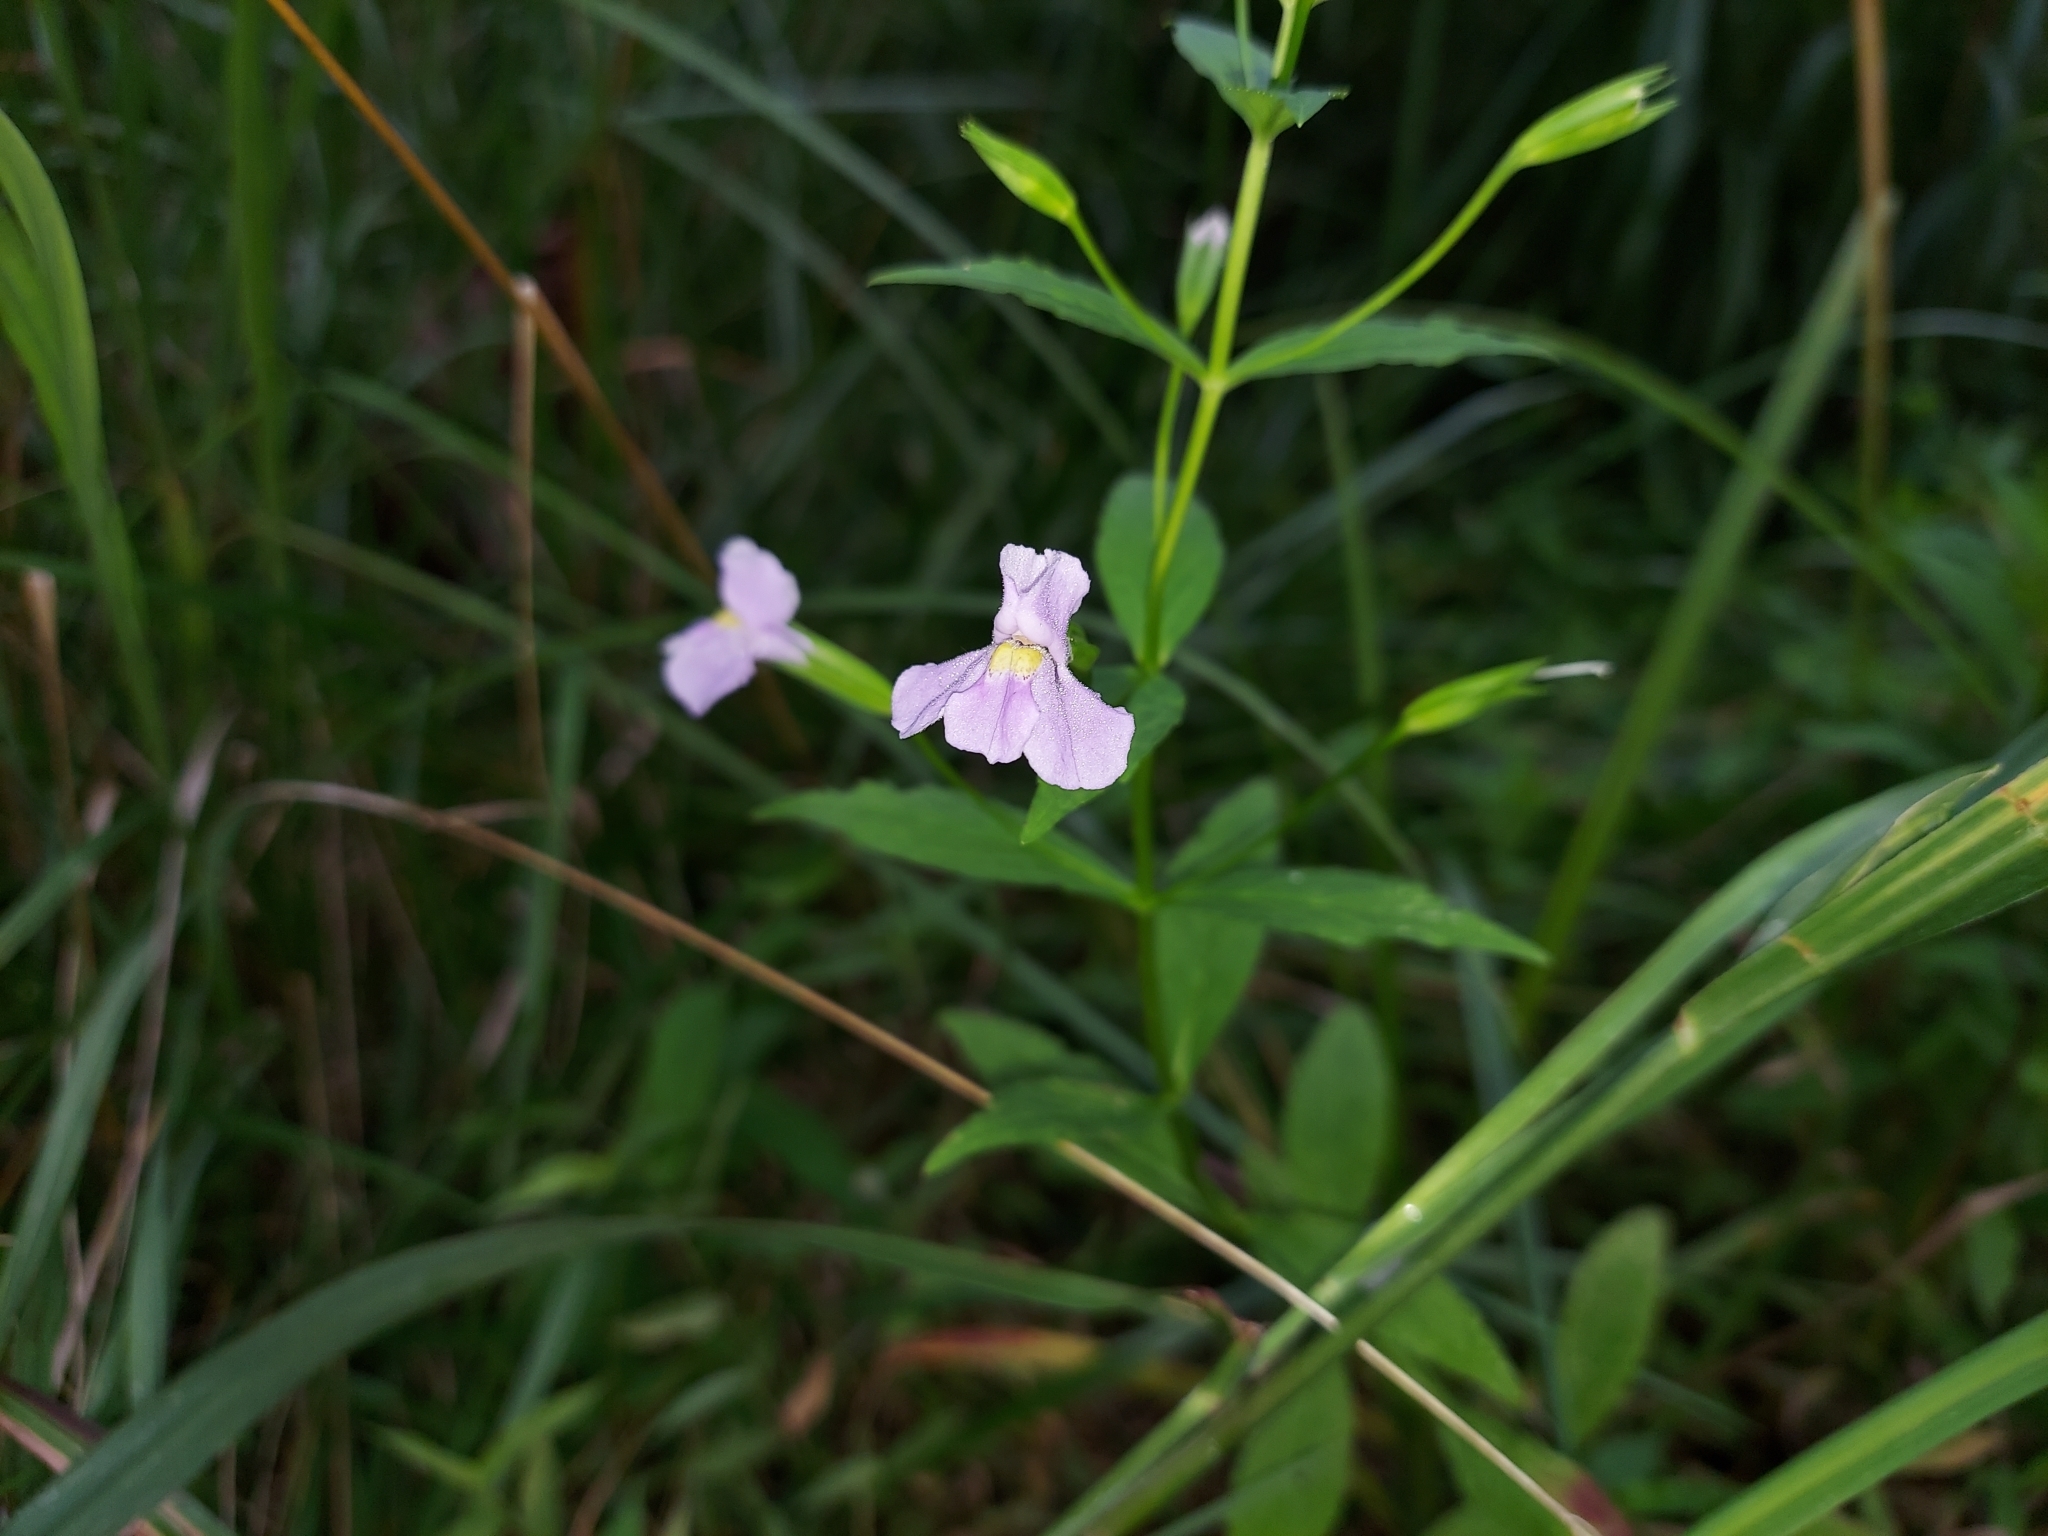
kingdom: Plantae
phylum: Tracheophyta
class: Magnoliopsida
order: Lamiales
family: Phrymaceae
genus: Mimulus
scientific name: Mimulus ringens
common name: Allegheny monkeyflower
